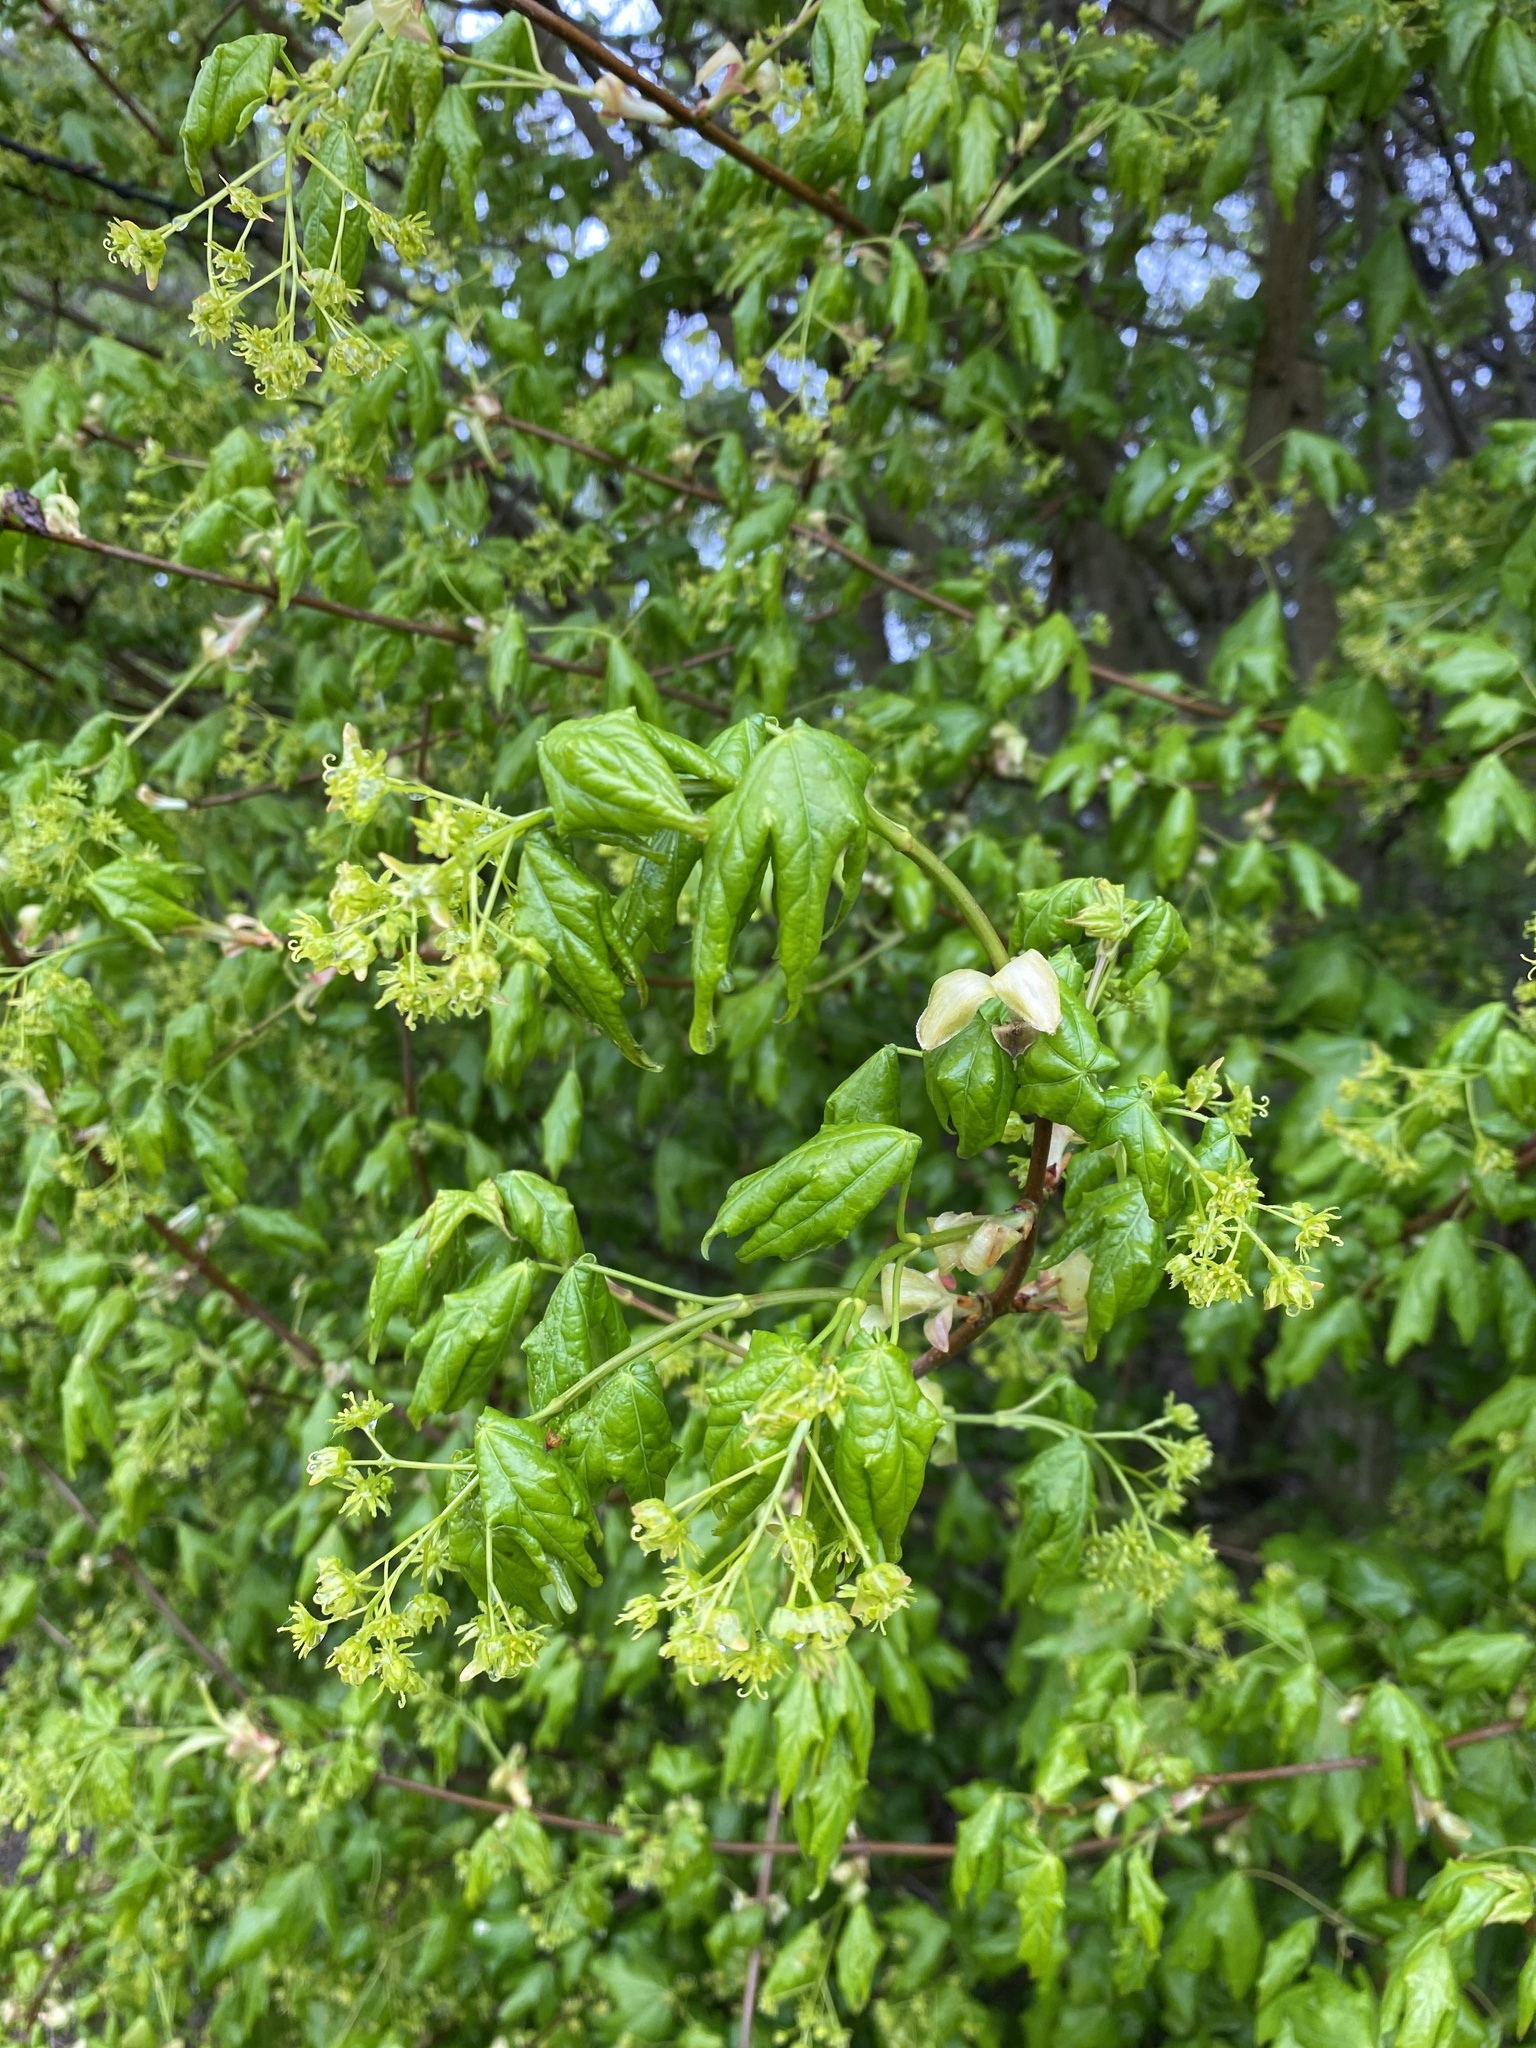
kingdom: Plantae
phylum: Tracheophyta
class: Magnoliopsida
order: Sapindales
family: Sapindaceae
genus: Acer
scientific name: Acer campestre
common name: Field maple
